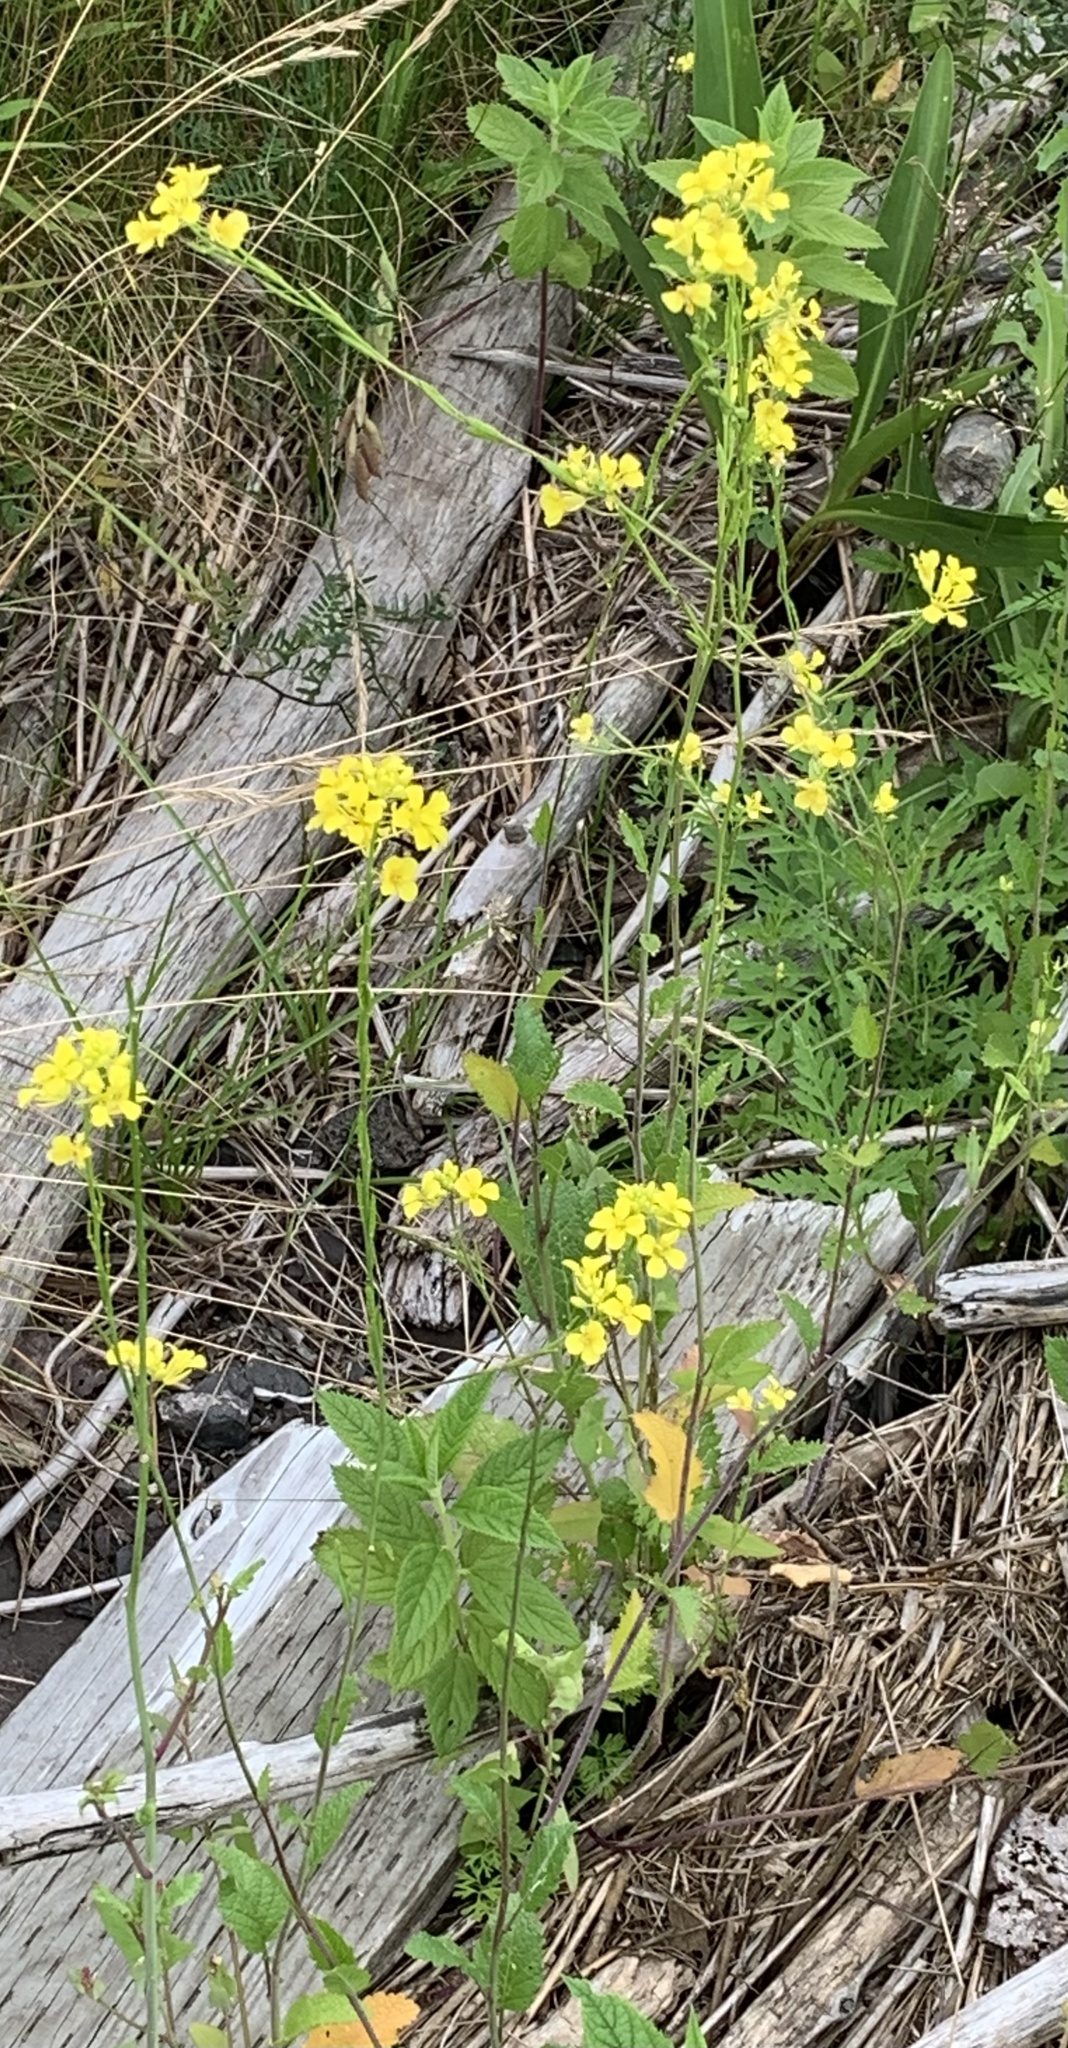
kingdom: Plantae
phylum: Tracheophyta
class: Magnoliopsida
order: Brassicales
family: Brassicaceae
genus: Brassica
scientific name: Brassica rapa
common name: Field mustard
